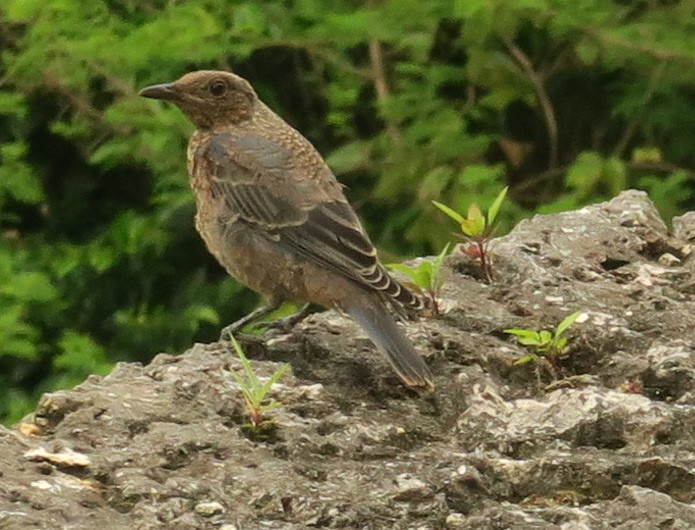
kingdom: Animalia
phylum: Chordata
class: Aves
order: Passeriformes
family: Muscicapidae
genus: Monticola
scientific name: Monticola solitarius
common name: Blue rock thrush
